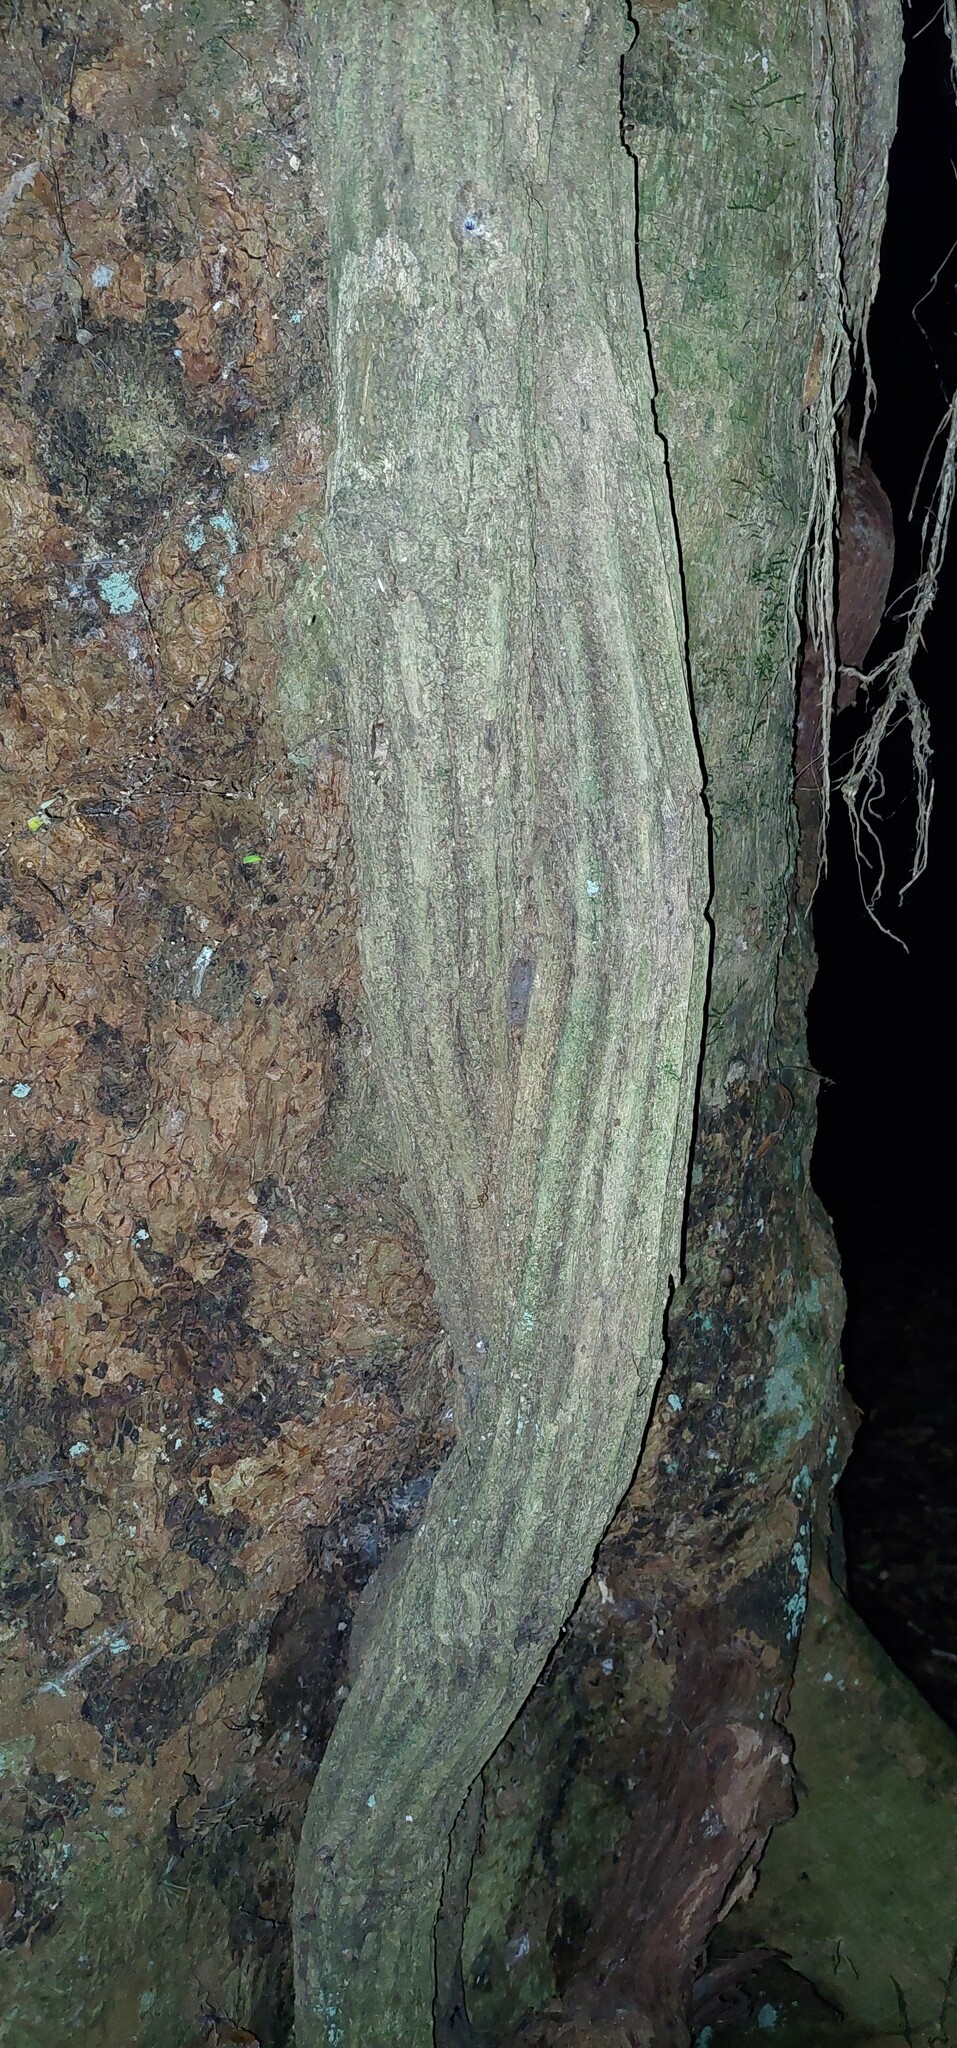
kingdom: Plantae
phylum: Tracheophyta
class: Magnoliopsida
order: Apiales
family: Griseliniaceae
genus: Griselinia
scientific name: Griselinia lucida
